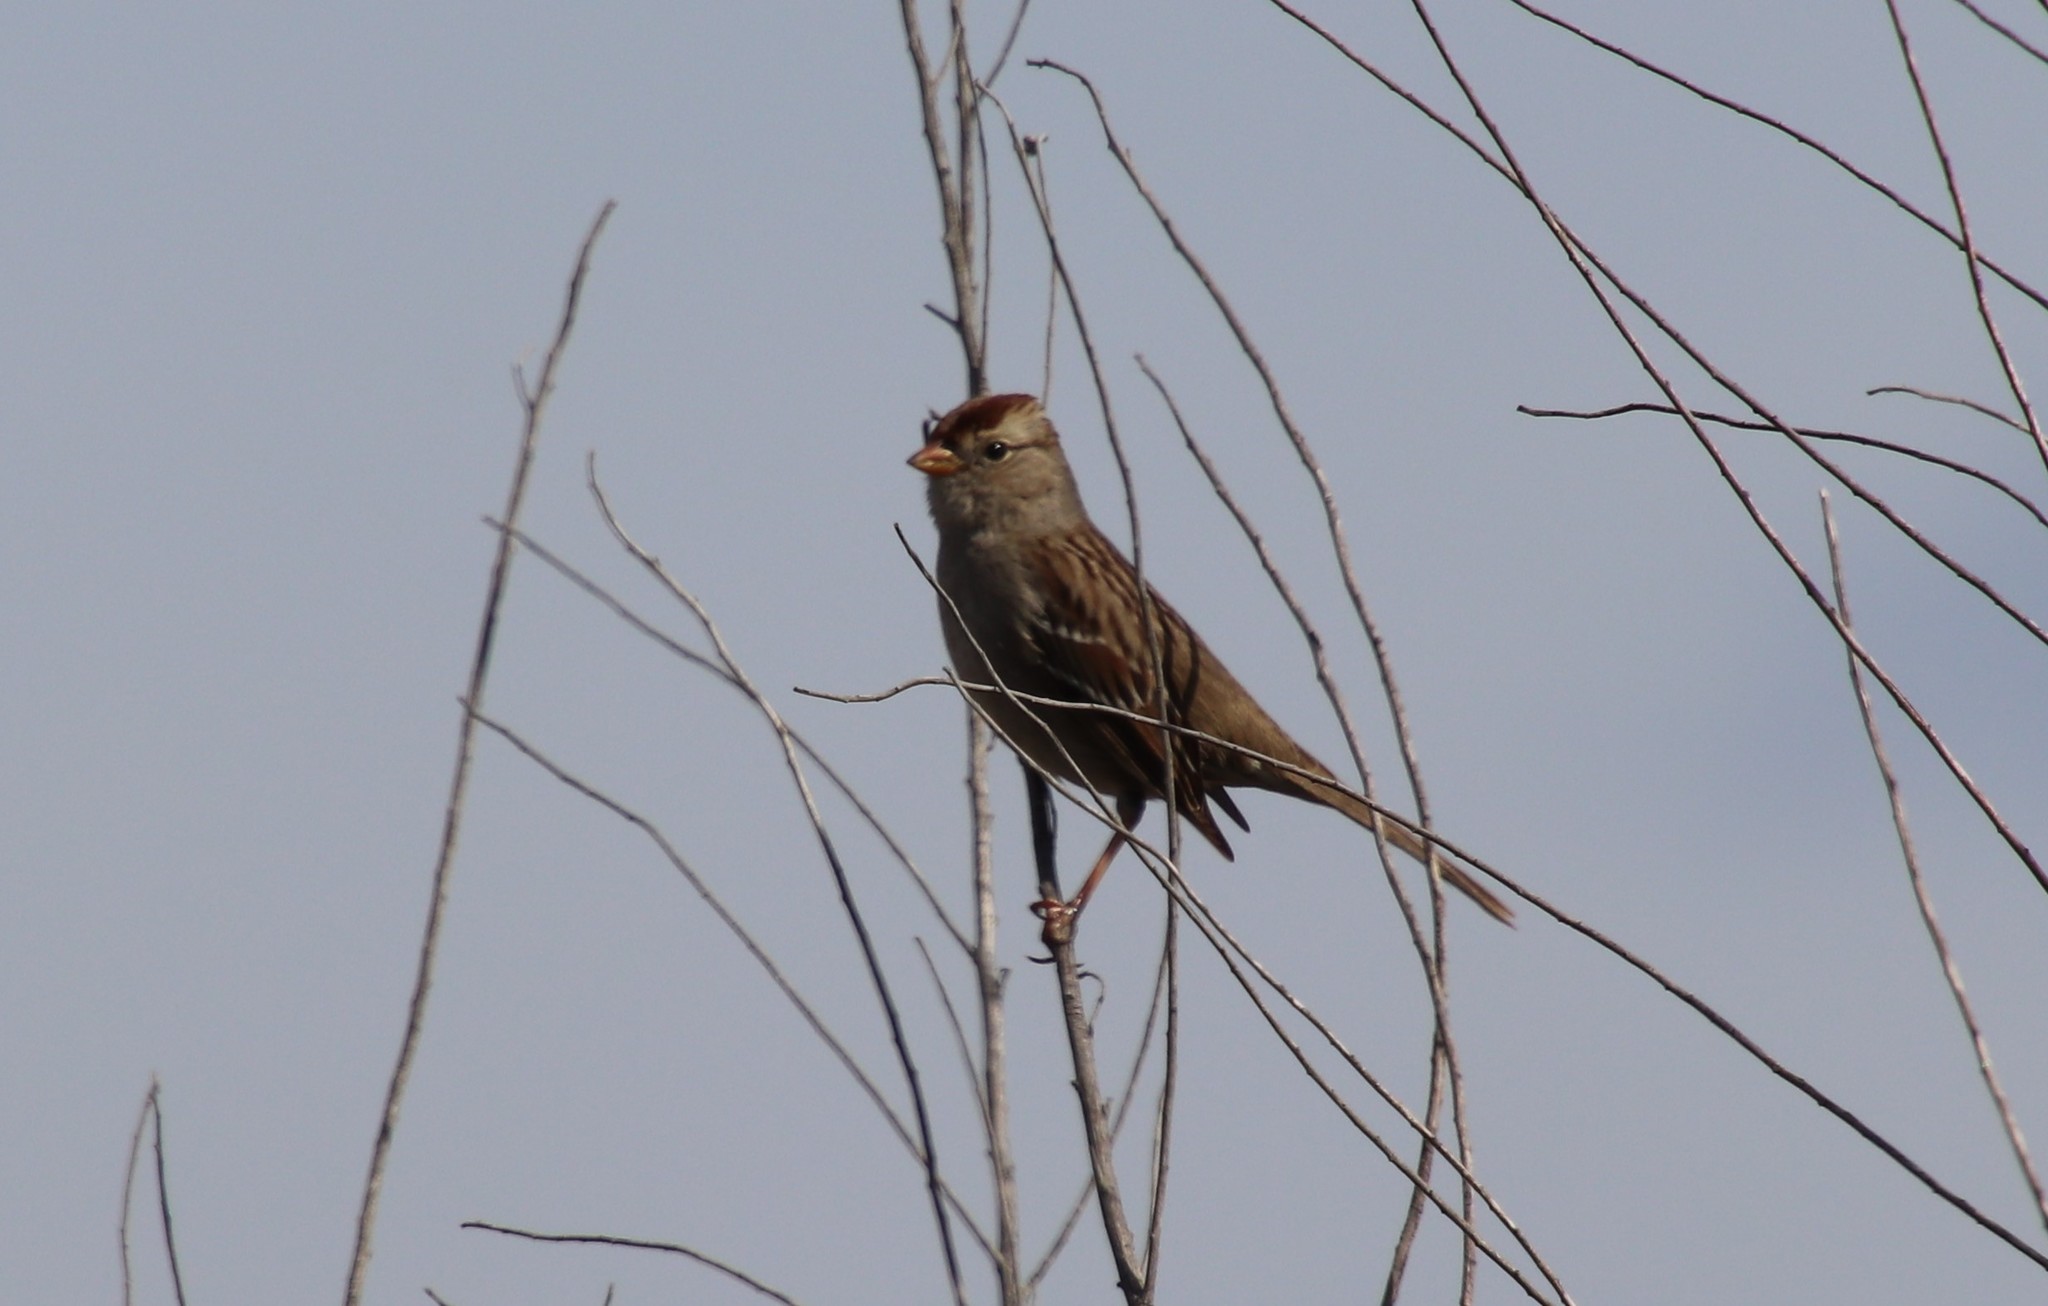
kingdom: Animalia
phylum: Chordata
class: Aves
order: Passeriformes
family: Passerellidae
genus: Zonotrichia
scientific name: Zonotrichia leucophrys
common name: White-crowned sparrow
